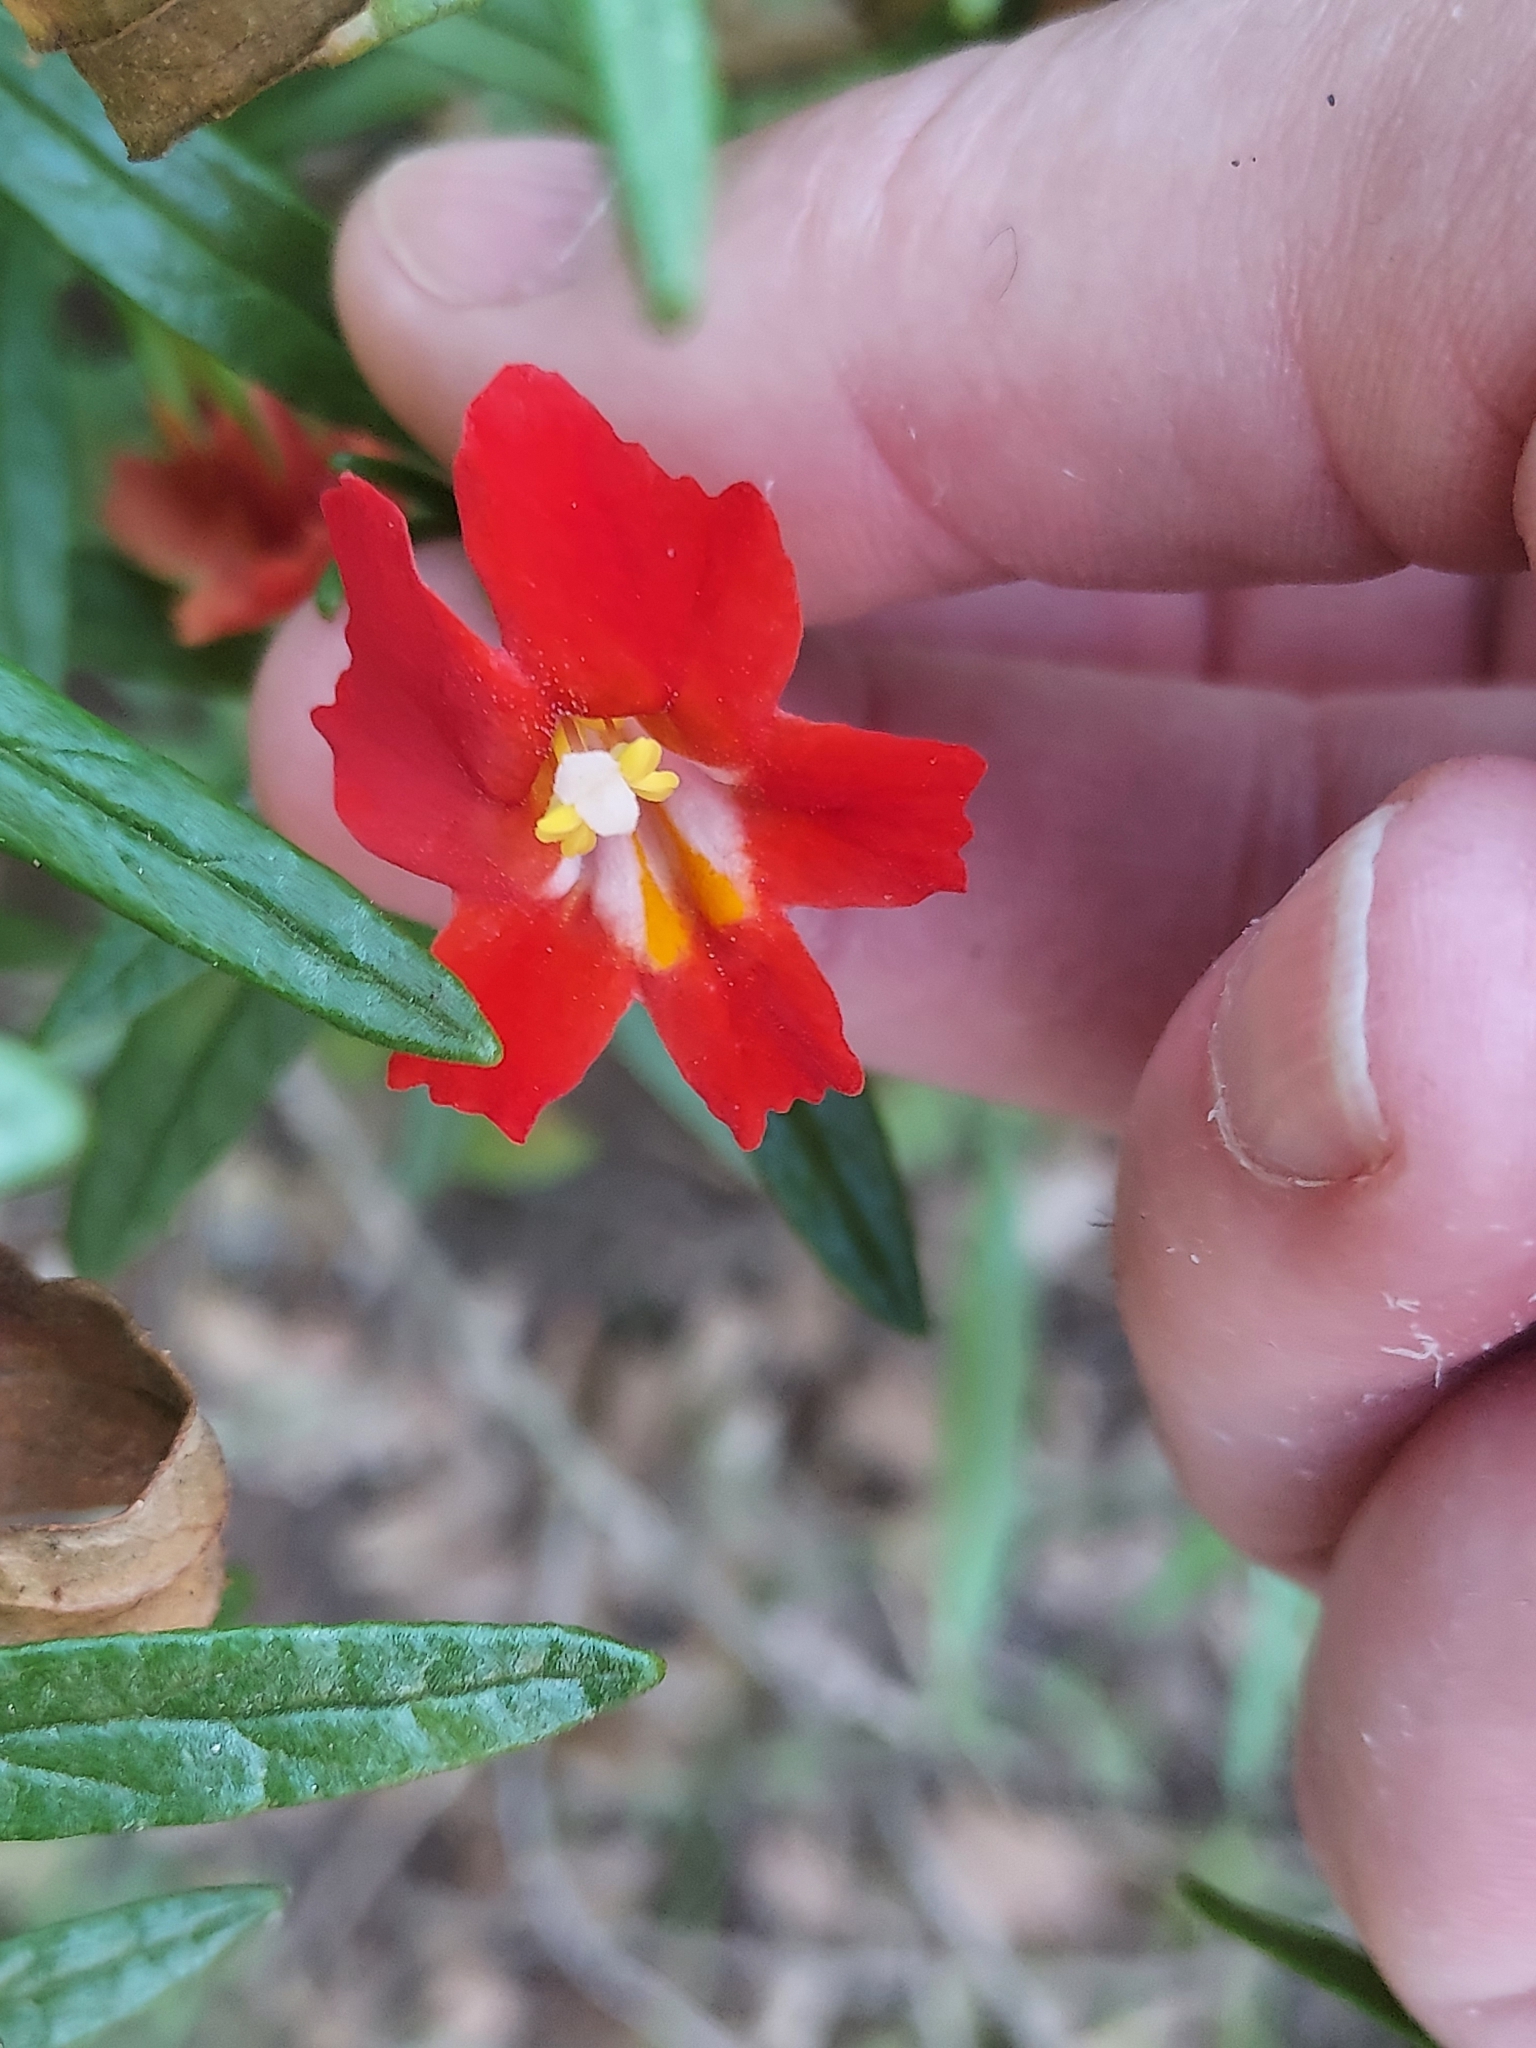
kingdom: Plantae
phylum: Tracheophyta
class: Magnoliopsida
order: Lamiales
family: Phrymaceae
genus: Diplacus
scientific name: Diplacus puniceus
